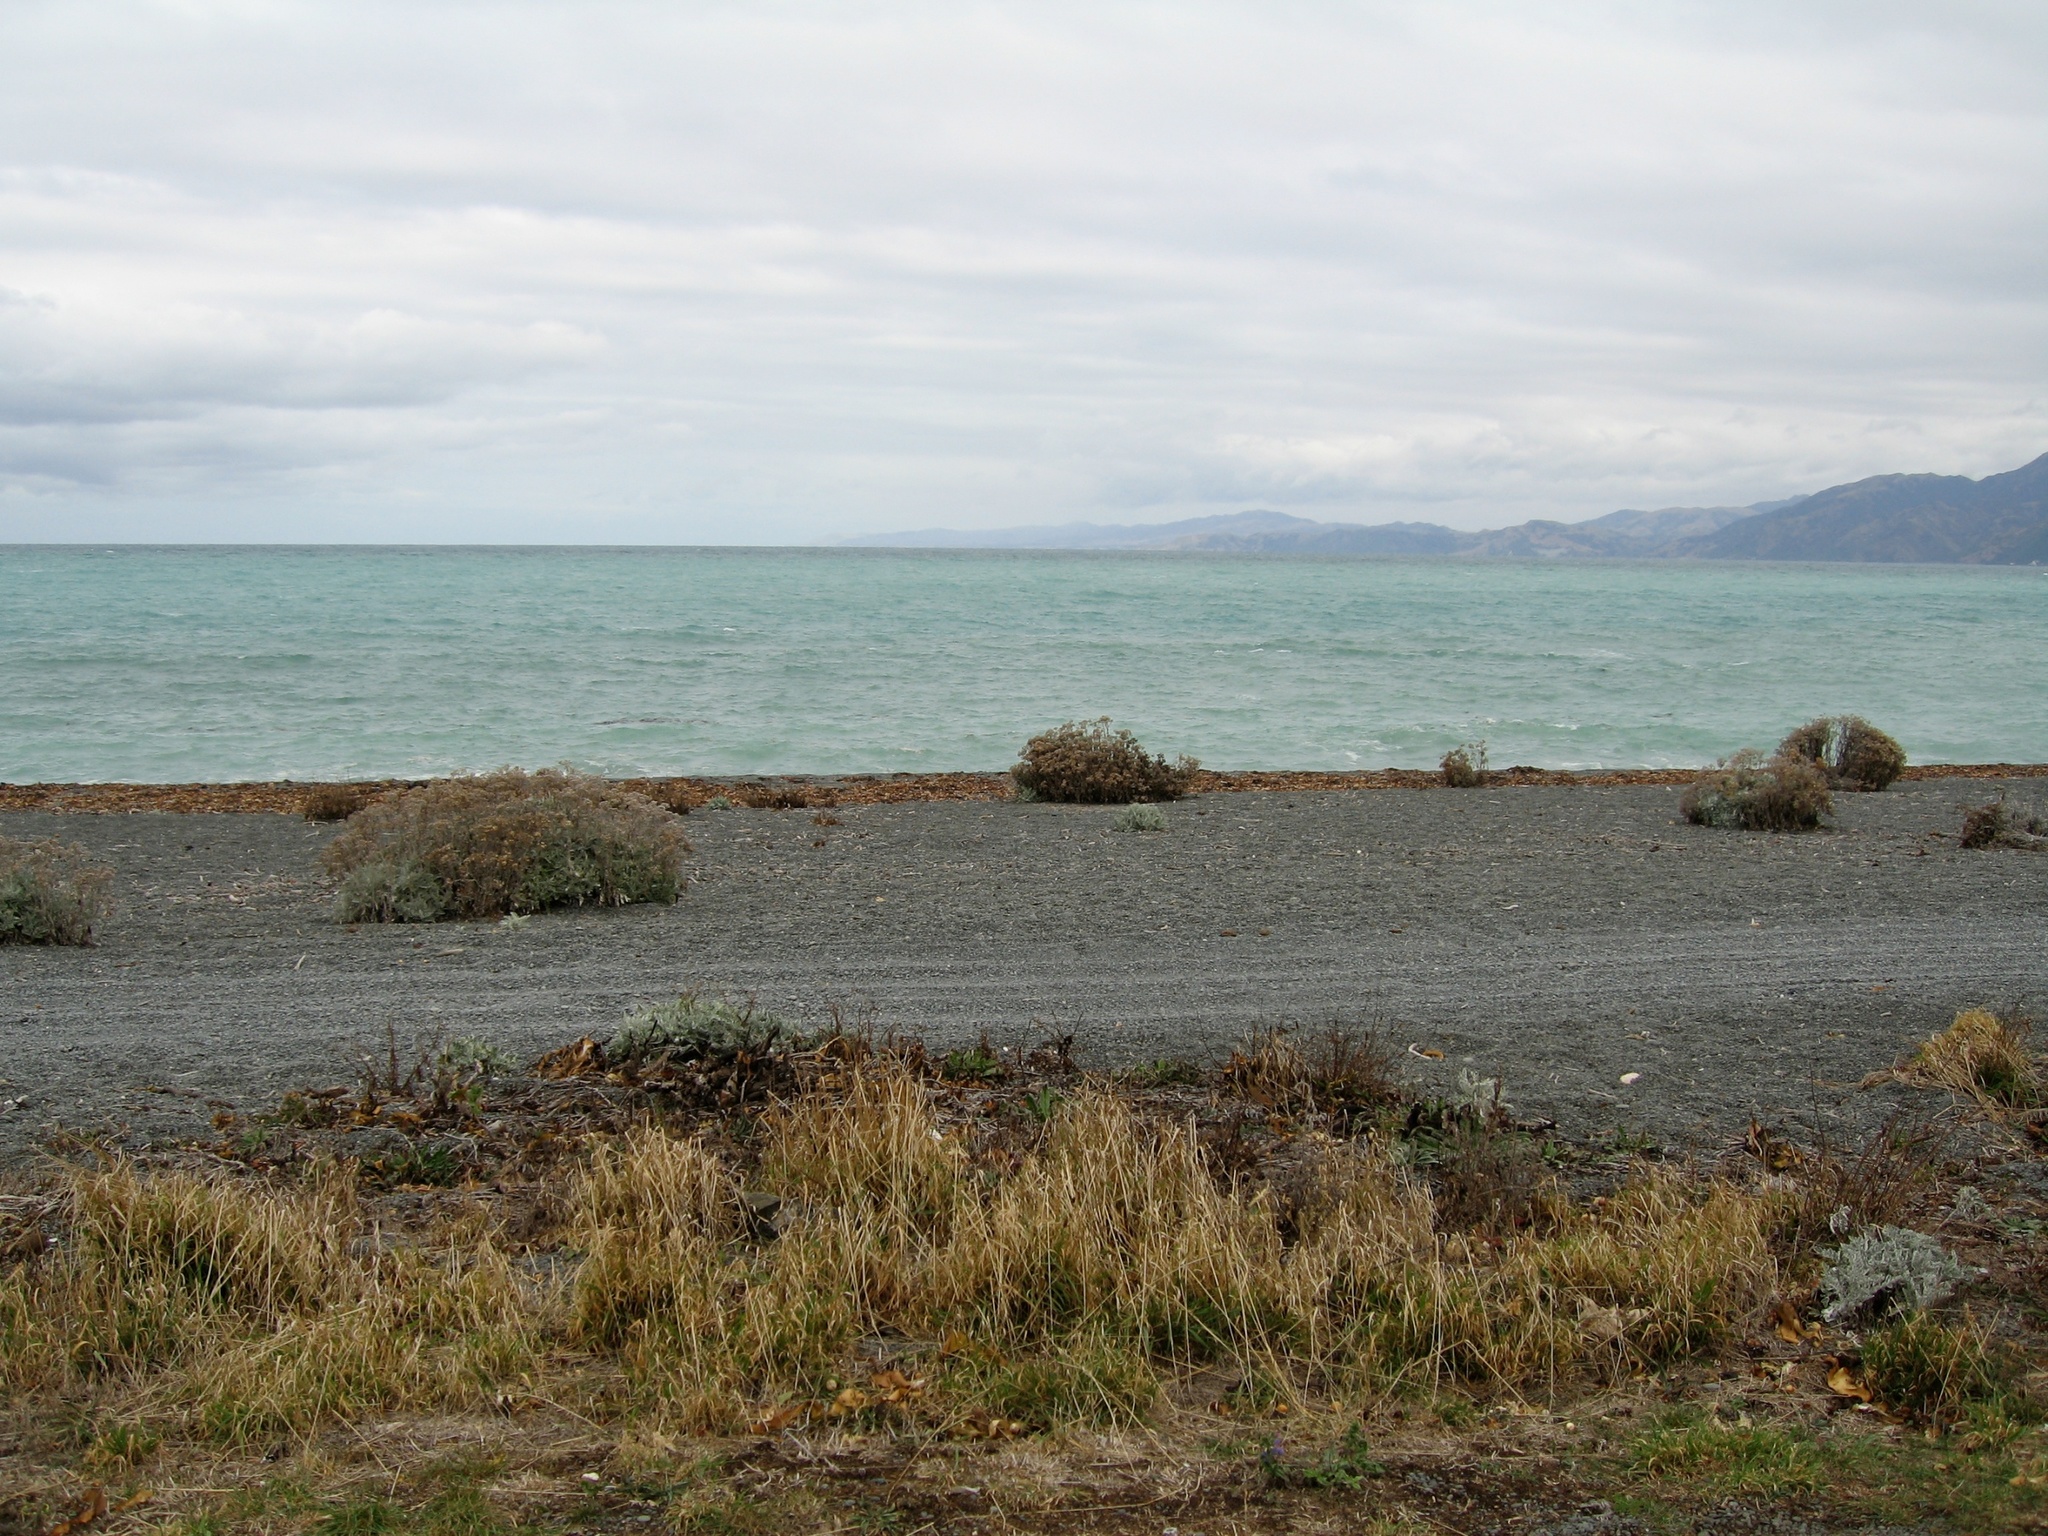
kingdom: Plantae
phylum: Tracheophyta
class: Magnoliopsida
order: Asterales
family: Asteraceae
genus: Jacobaea
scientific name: Jacobaea maritima
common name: Silver ragwort
